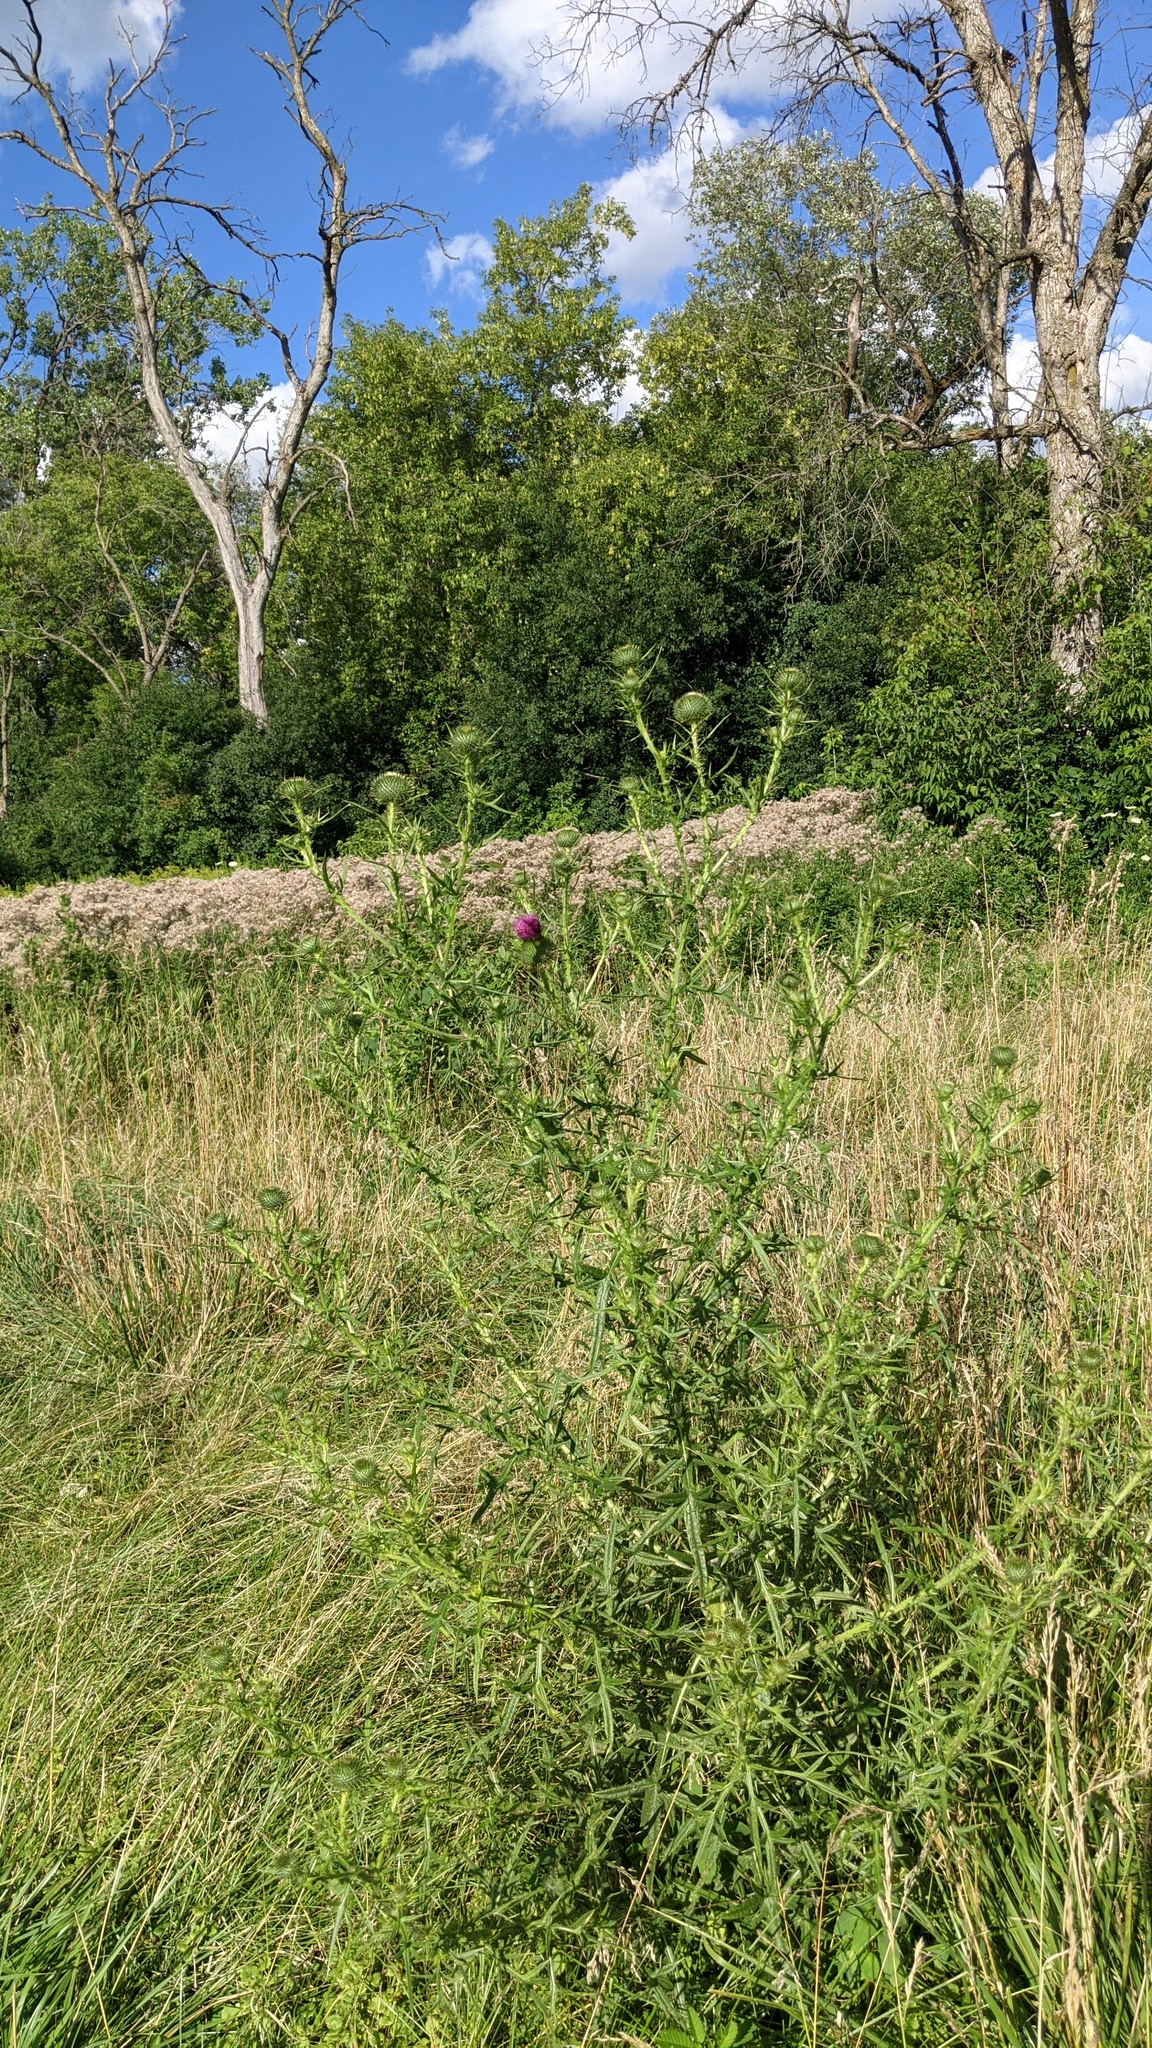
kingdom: Plantae
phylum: Tracheophyta
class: Magnoliopsida
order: Asterales
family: Asteraceae
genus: Cirsium
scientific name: Cirsium vulgare
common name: Bull thistle
